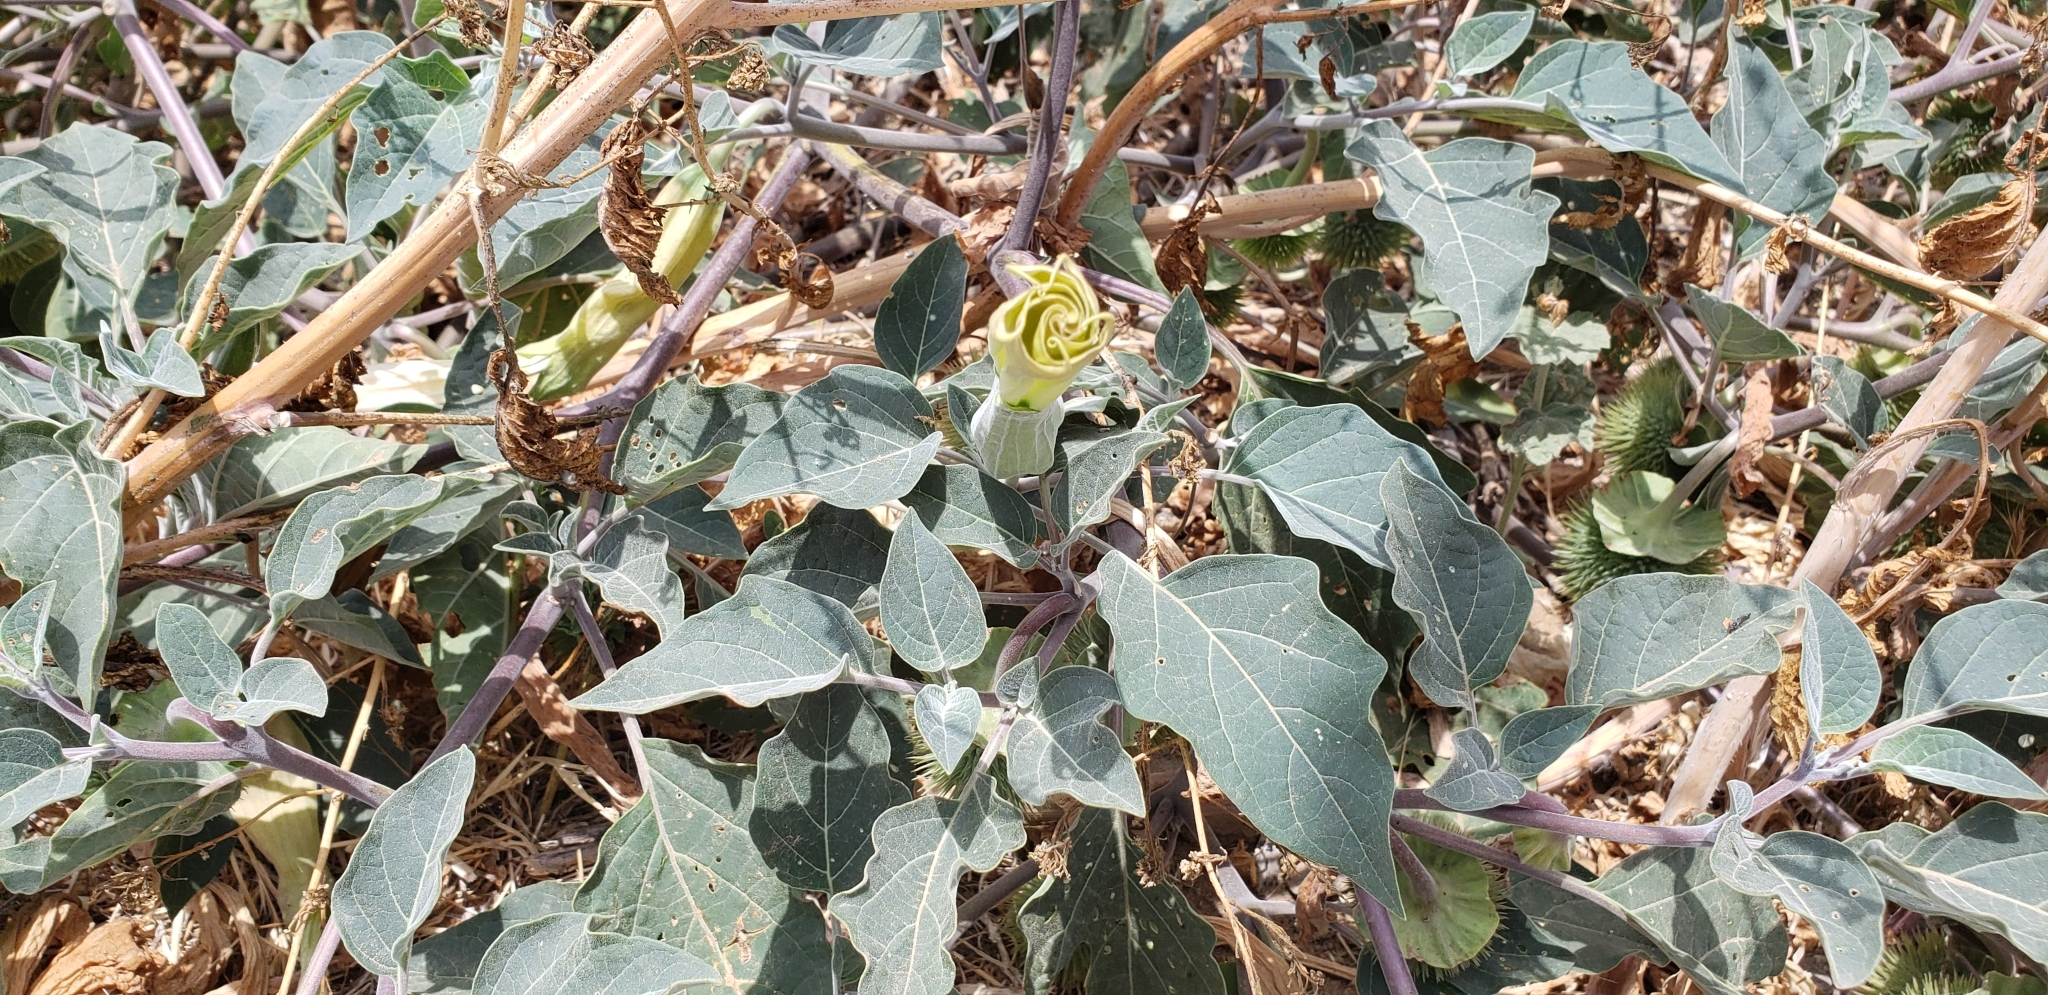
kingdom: Plantae
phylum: Tracheophyta
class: Magnoliopsida
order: Solanales
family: Solanaceae
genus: Datura
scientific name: Datura wrightii
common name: Sacred thorn-apple
